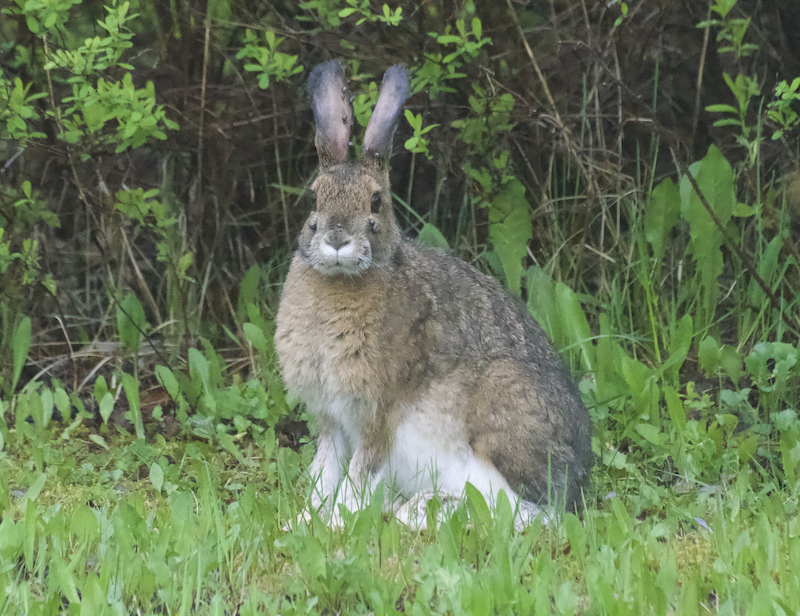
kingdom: Animalia
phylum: Chordata
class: Mammalia
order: Lagomorpha
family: Leporidae
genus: Lepus
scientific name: Lepus americanus
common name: Snowshoe hare
